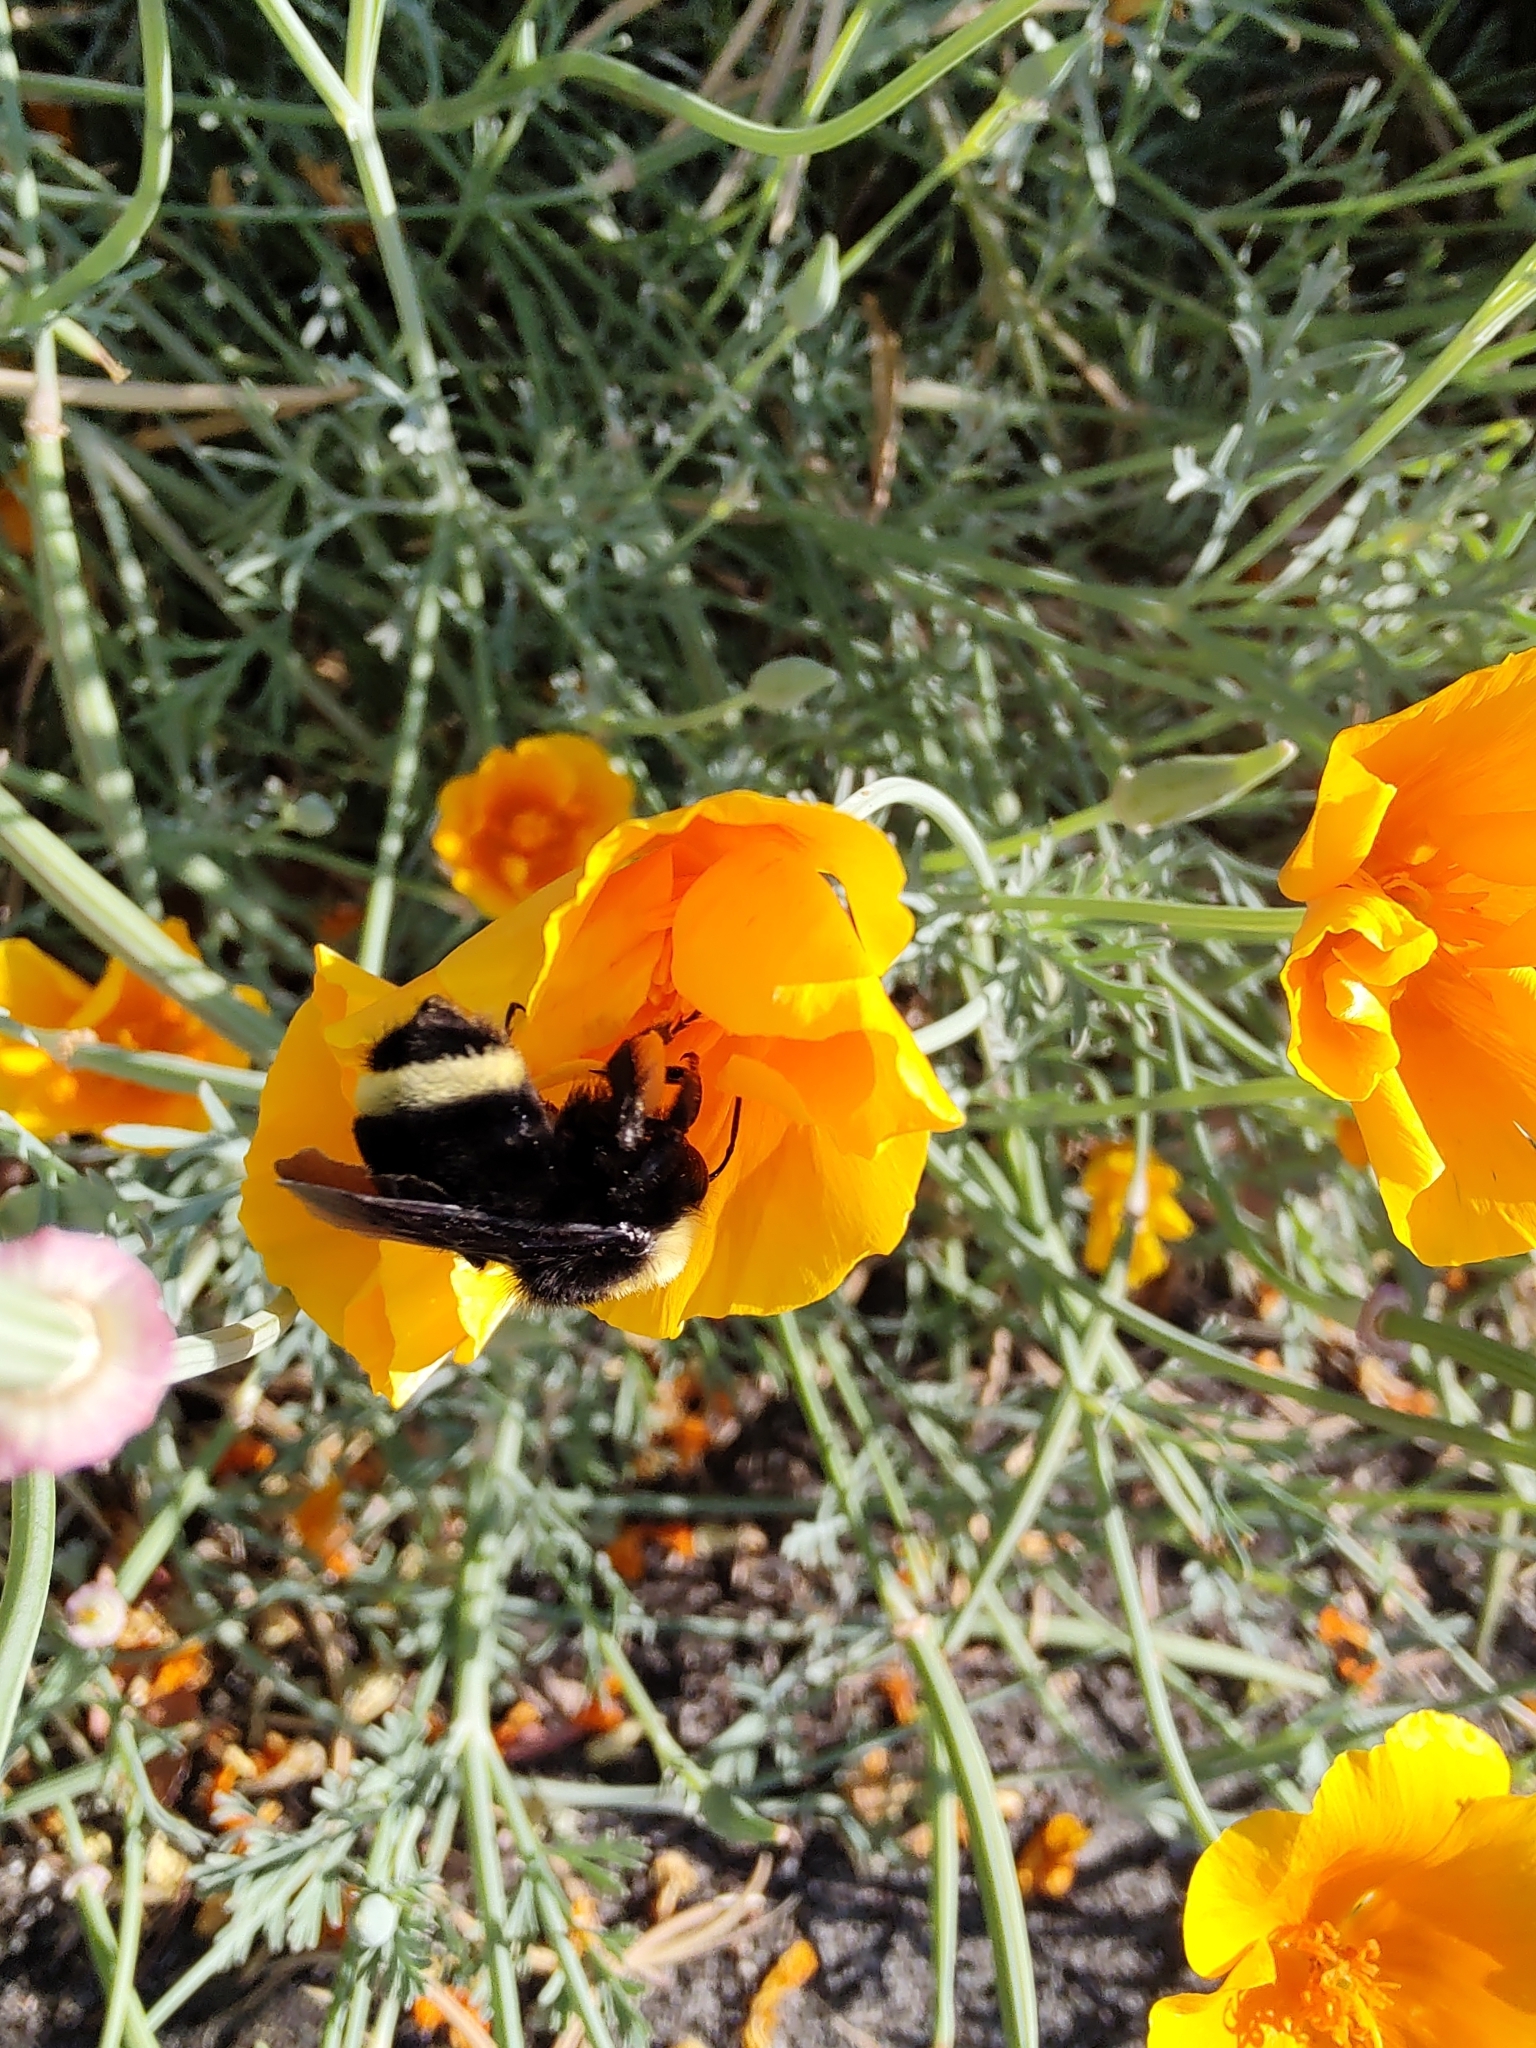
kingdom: Animalia
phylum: Arthropoda
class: Insecta
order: Hymenoptera
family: Apidae
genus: Bombus
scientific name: Bombus vosnesenskii
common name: Vosnesensky bumble bee
